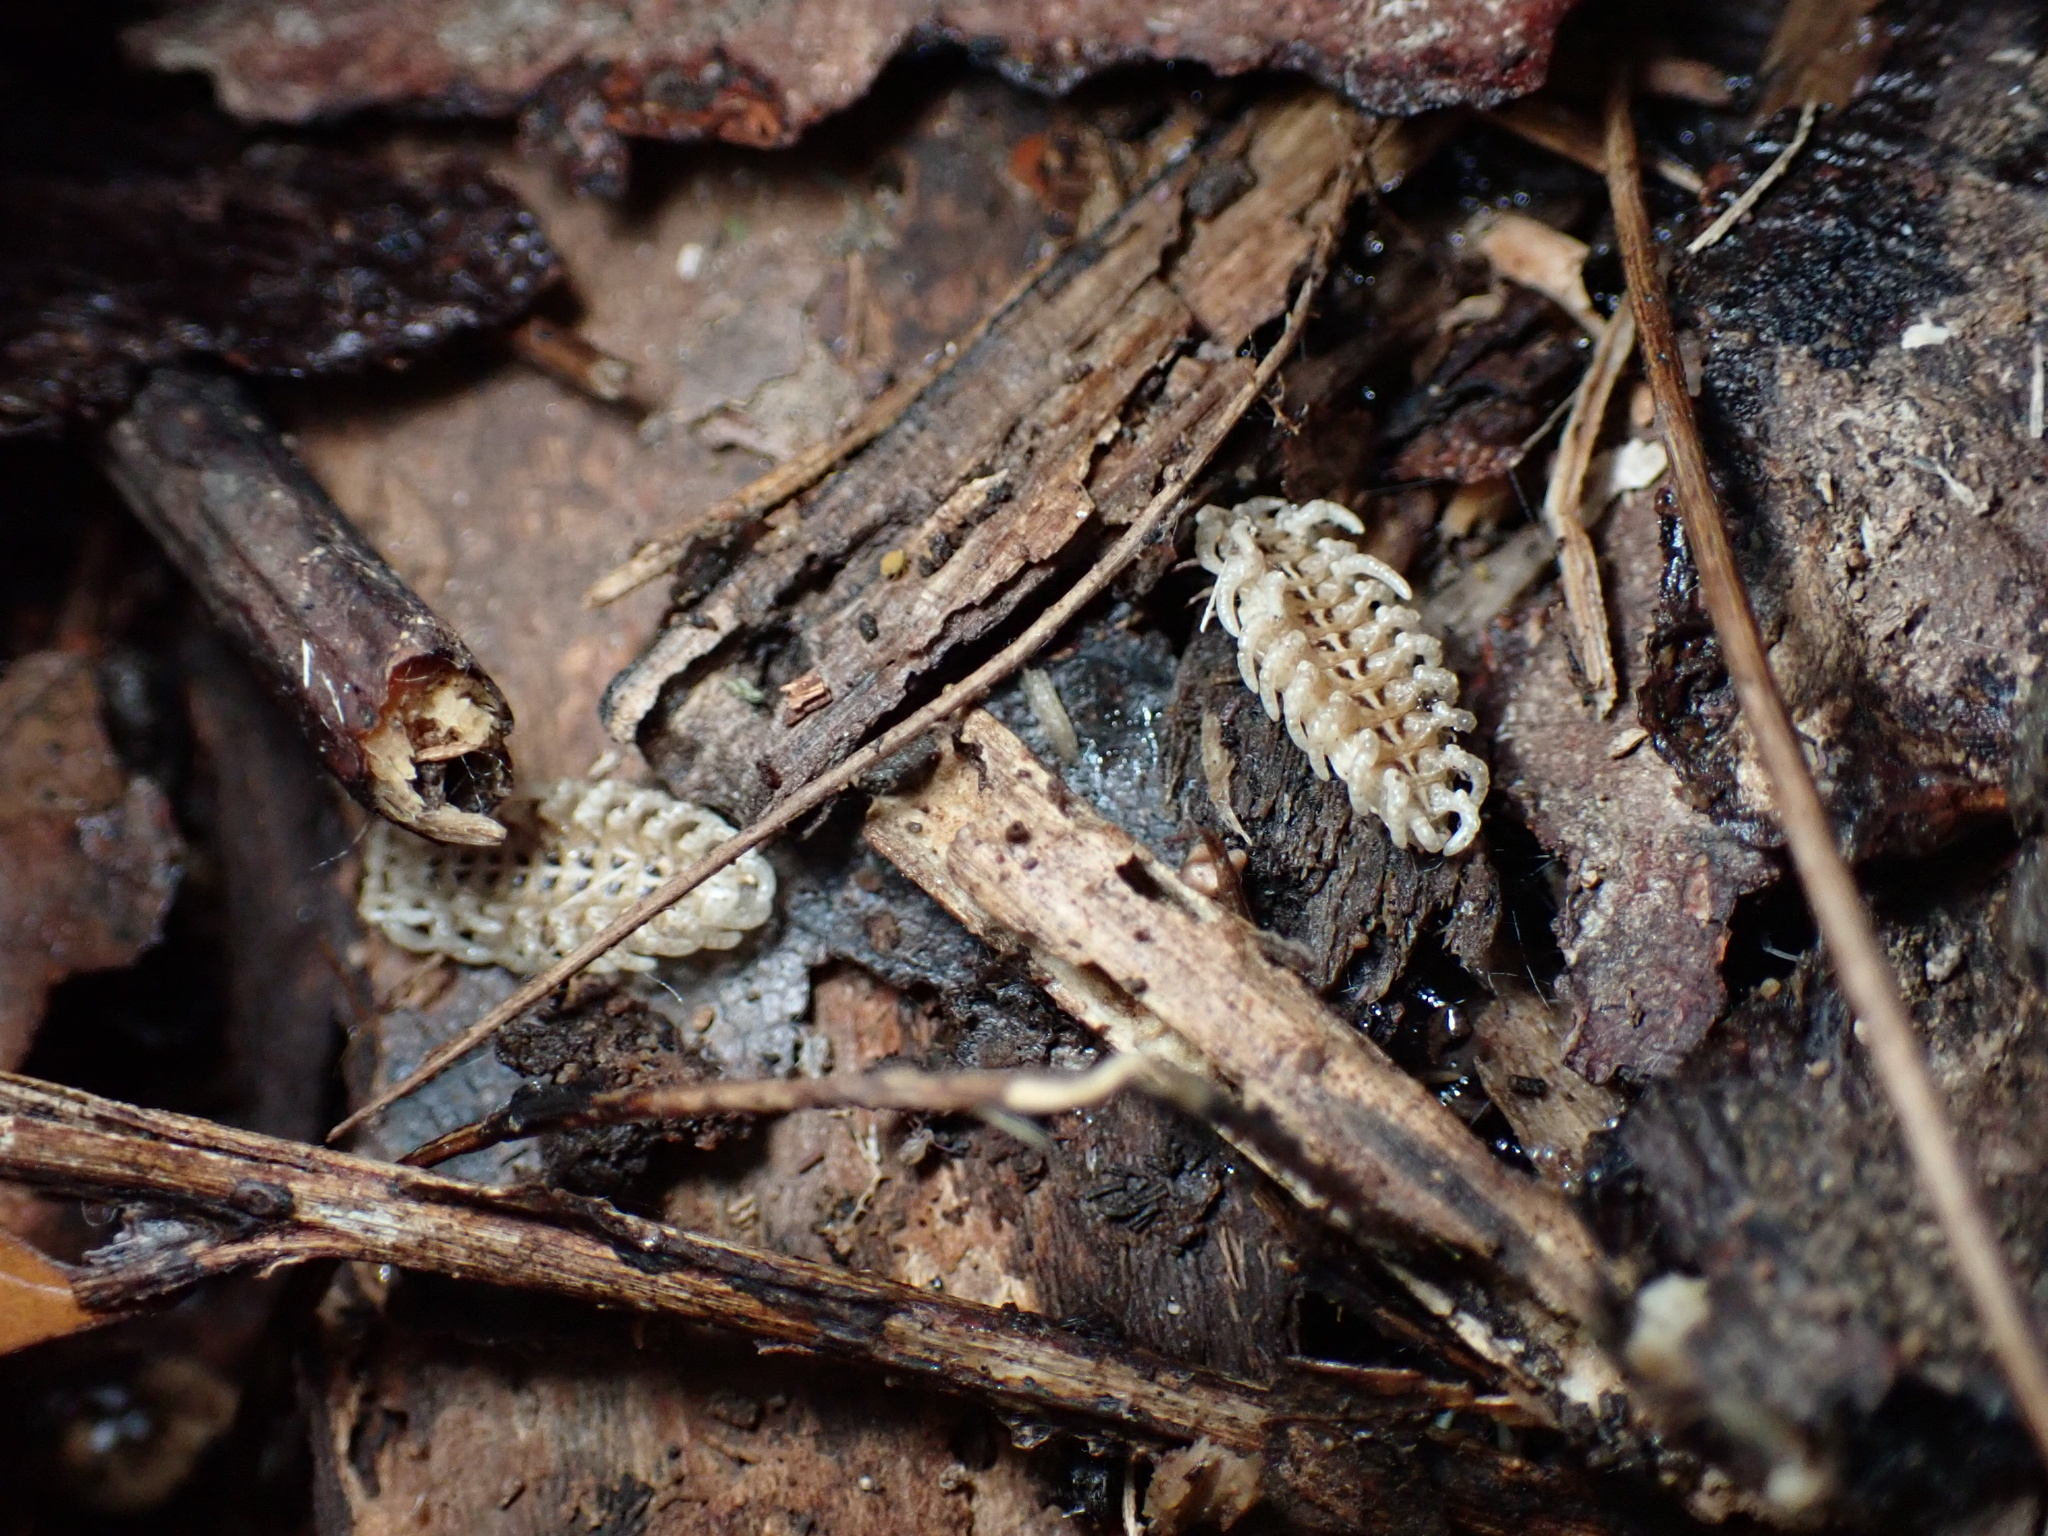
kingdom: Animalia
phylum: Arthropoda
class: Insecta
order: Coleoptera
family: Lycidae
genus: Caenia
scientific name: Caenia dimidiata
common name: Terminal net-winged beetle
